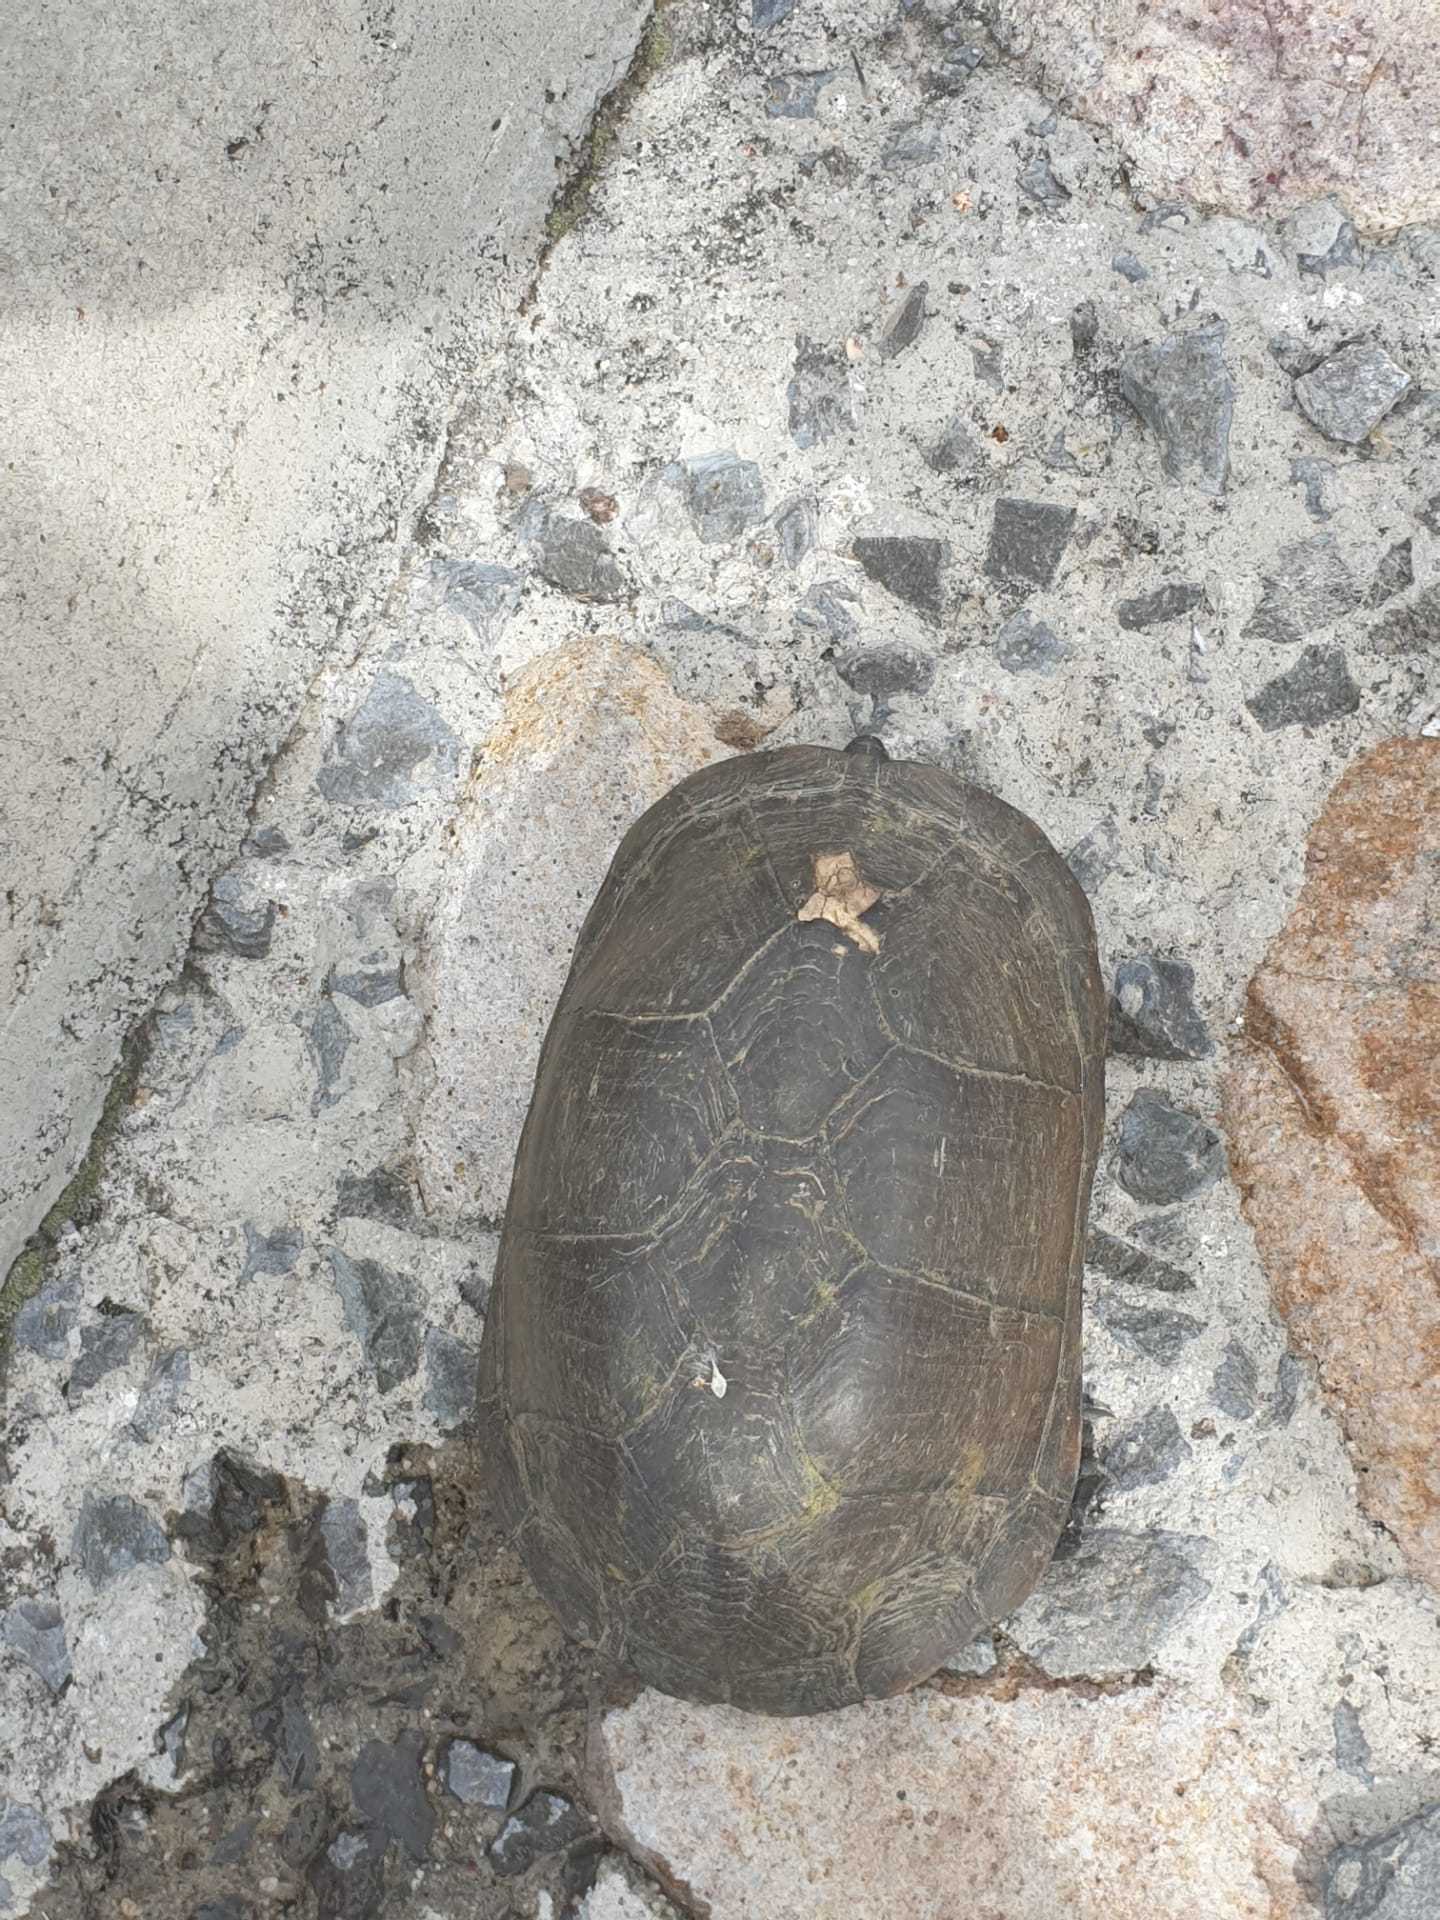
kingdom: Animalia
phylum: Chordata
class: Testudines
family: Kinosternidae
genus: Kinosternon
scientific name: Kinosternon integrum
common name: Mexican mud turtle
